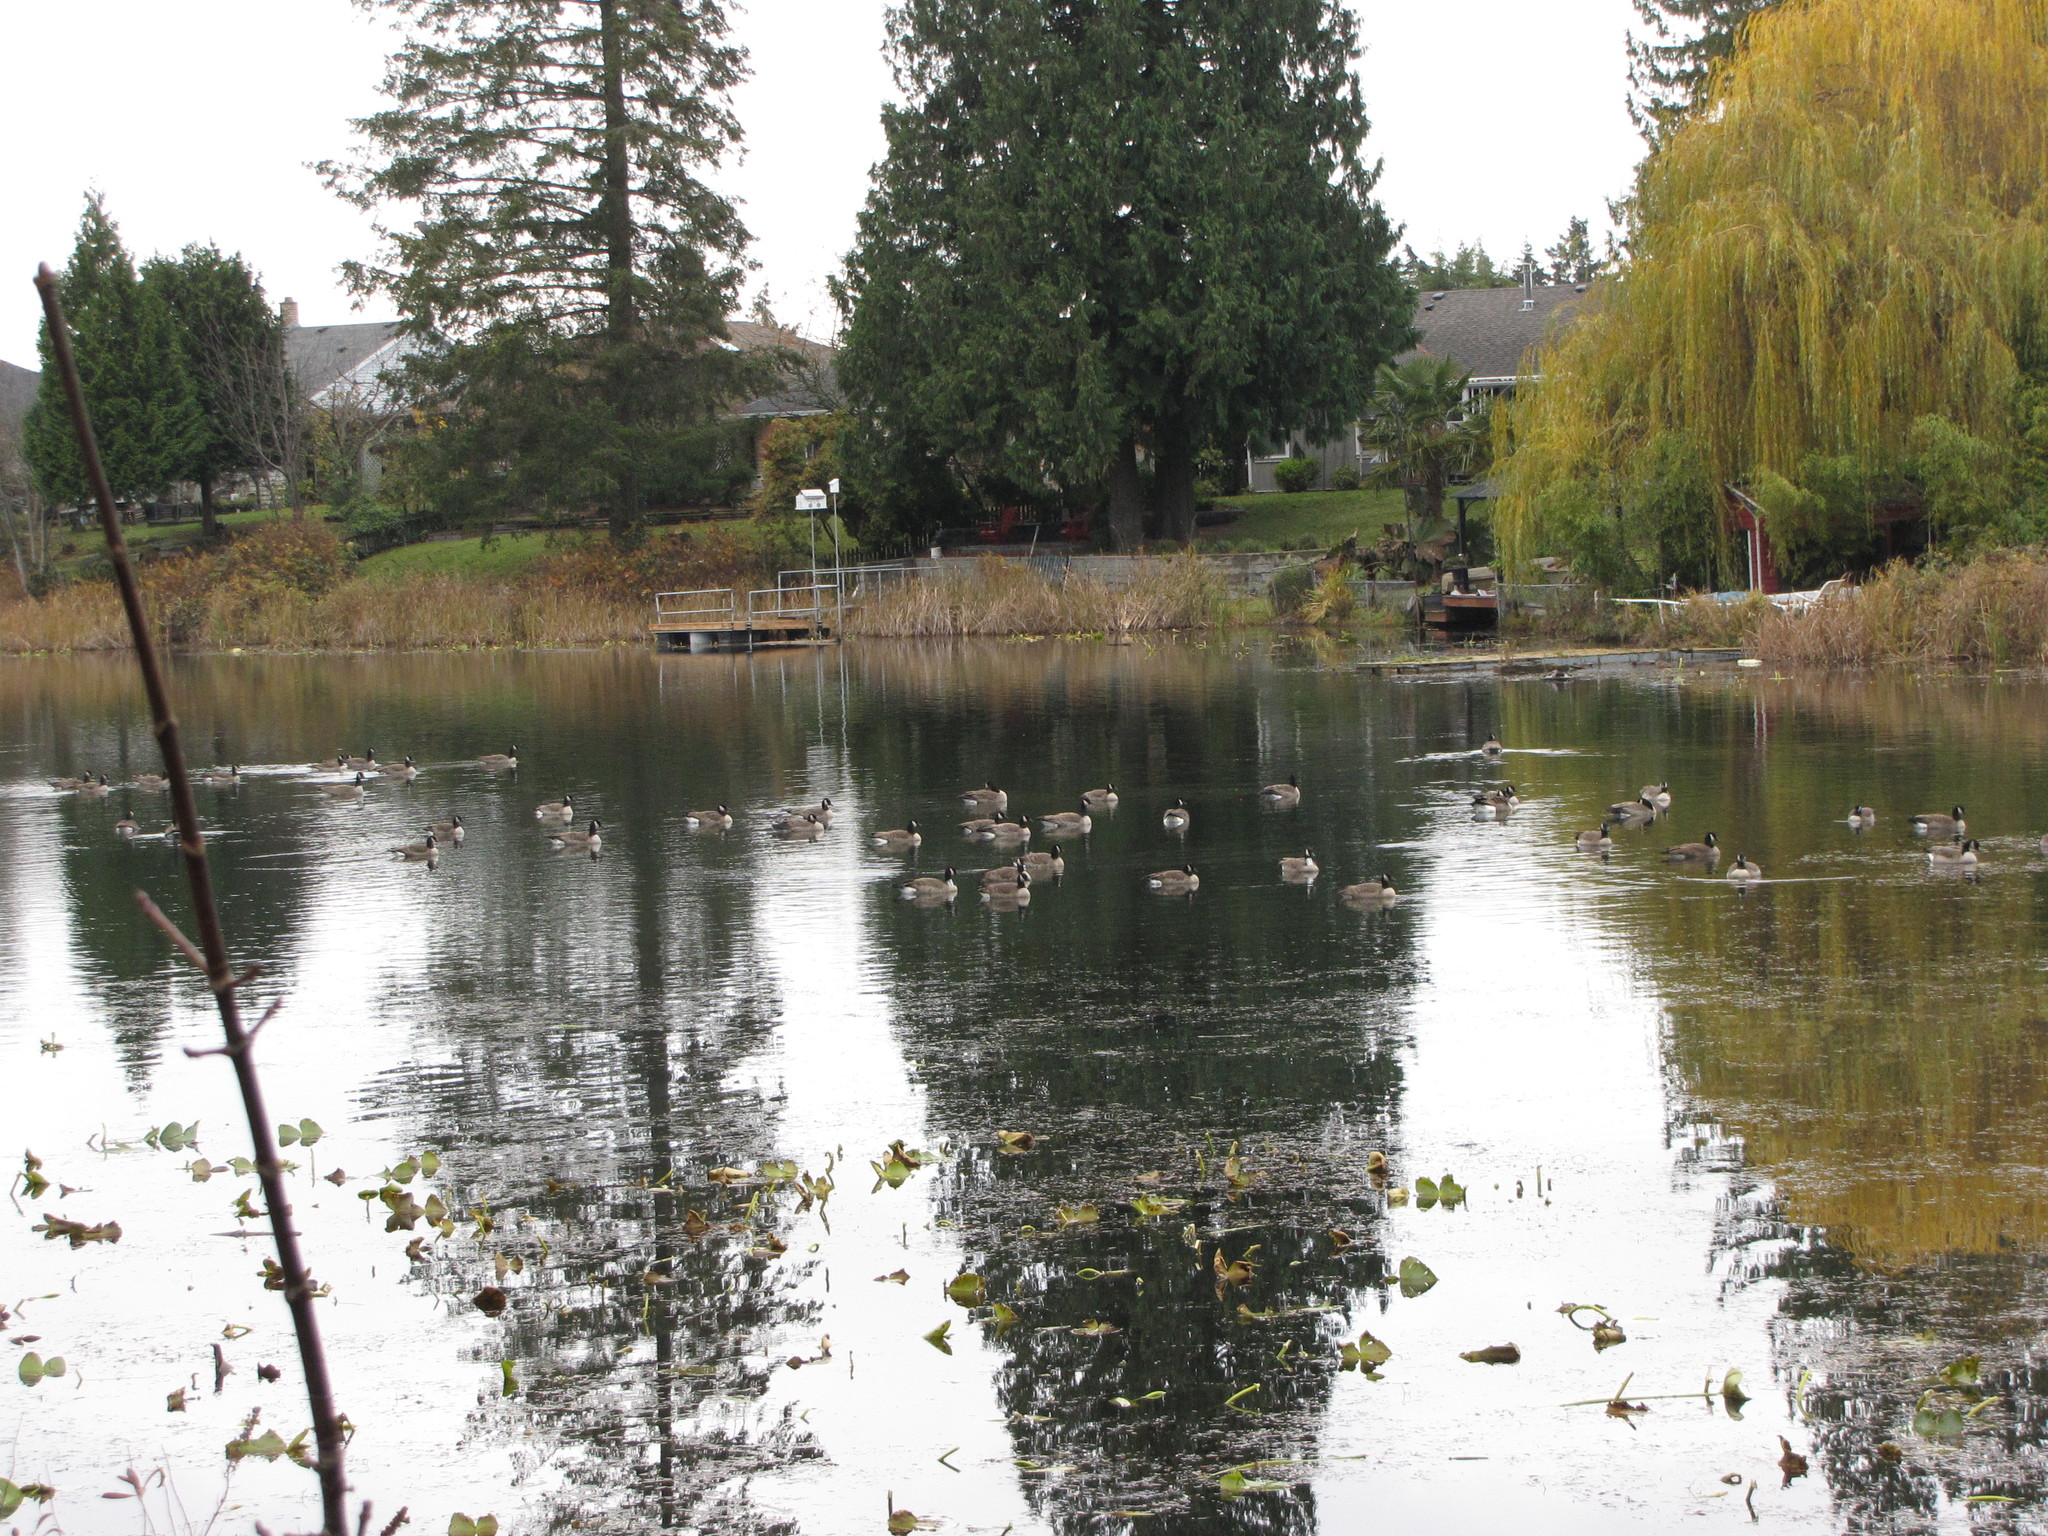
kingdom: Animalia
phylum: Chordata
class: Aves
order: Anseriformes
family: Anatidae
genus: Branta
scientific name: Branta canadensis
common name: Canada goose
